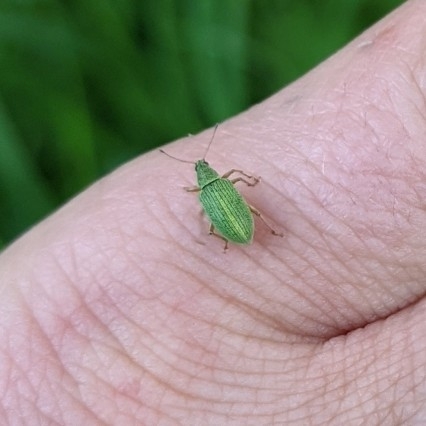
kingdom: Animalia
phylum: Arthropoda
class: Insecta
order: Coleoptera
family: Curculionidae
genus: Polydrusus
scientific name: Polydrusus formosus
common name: Weevil
